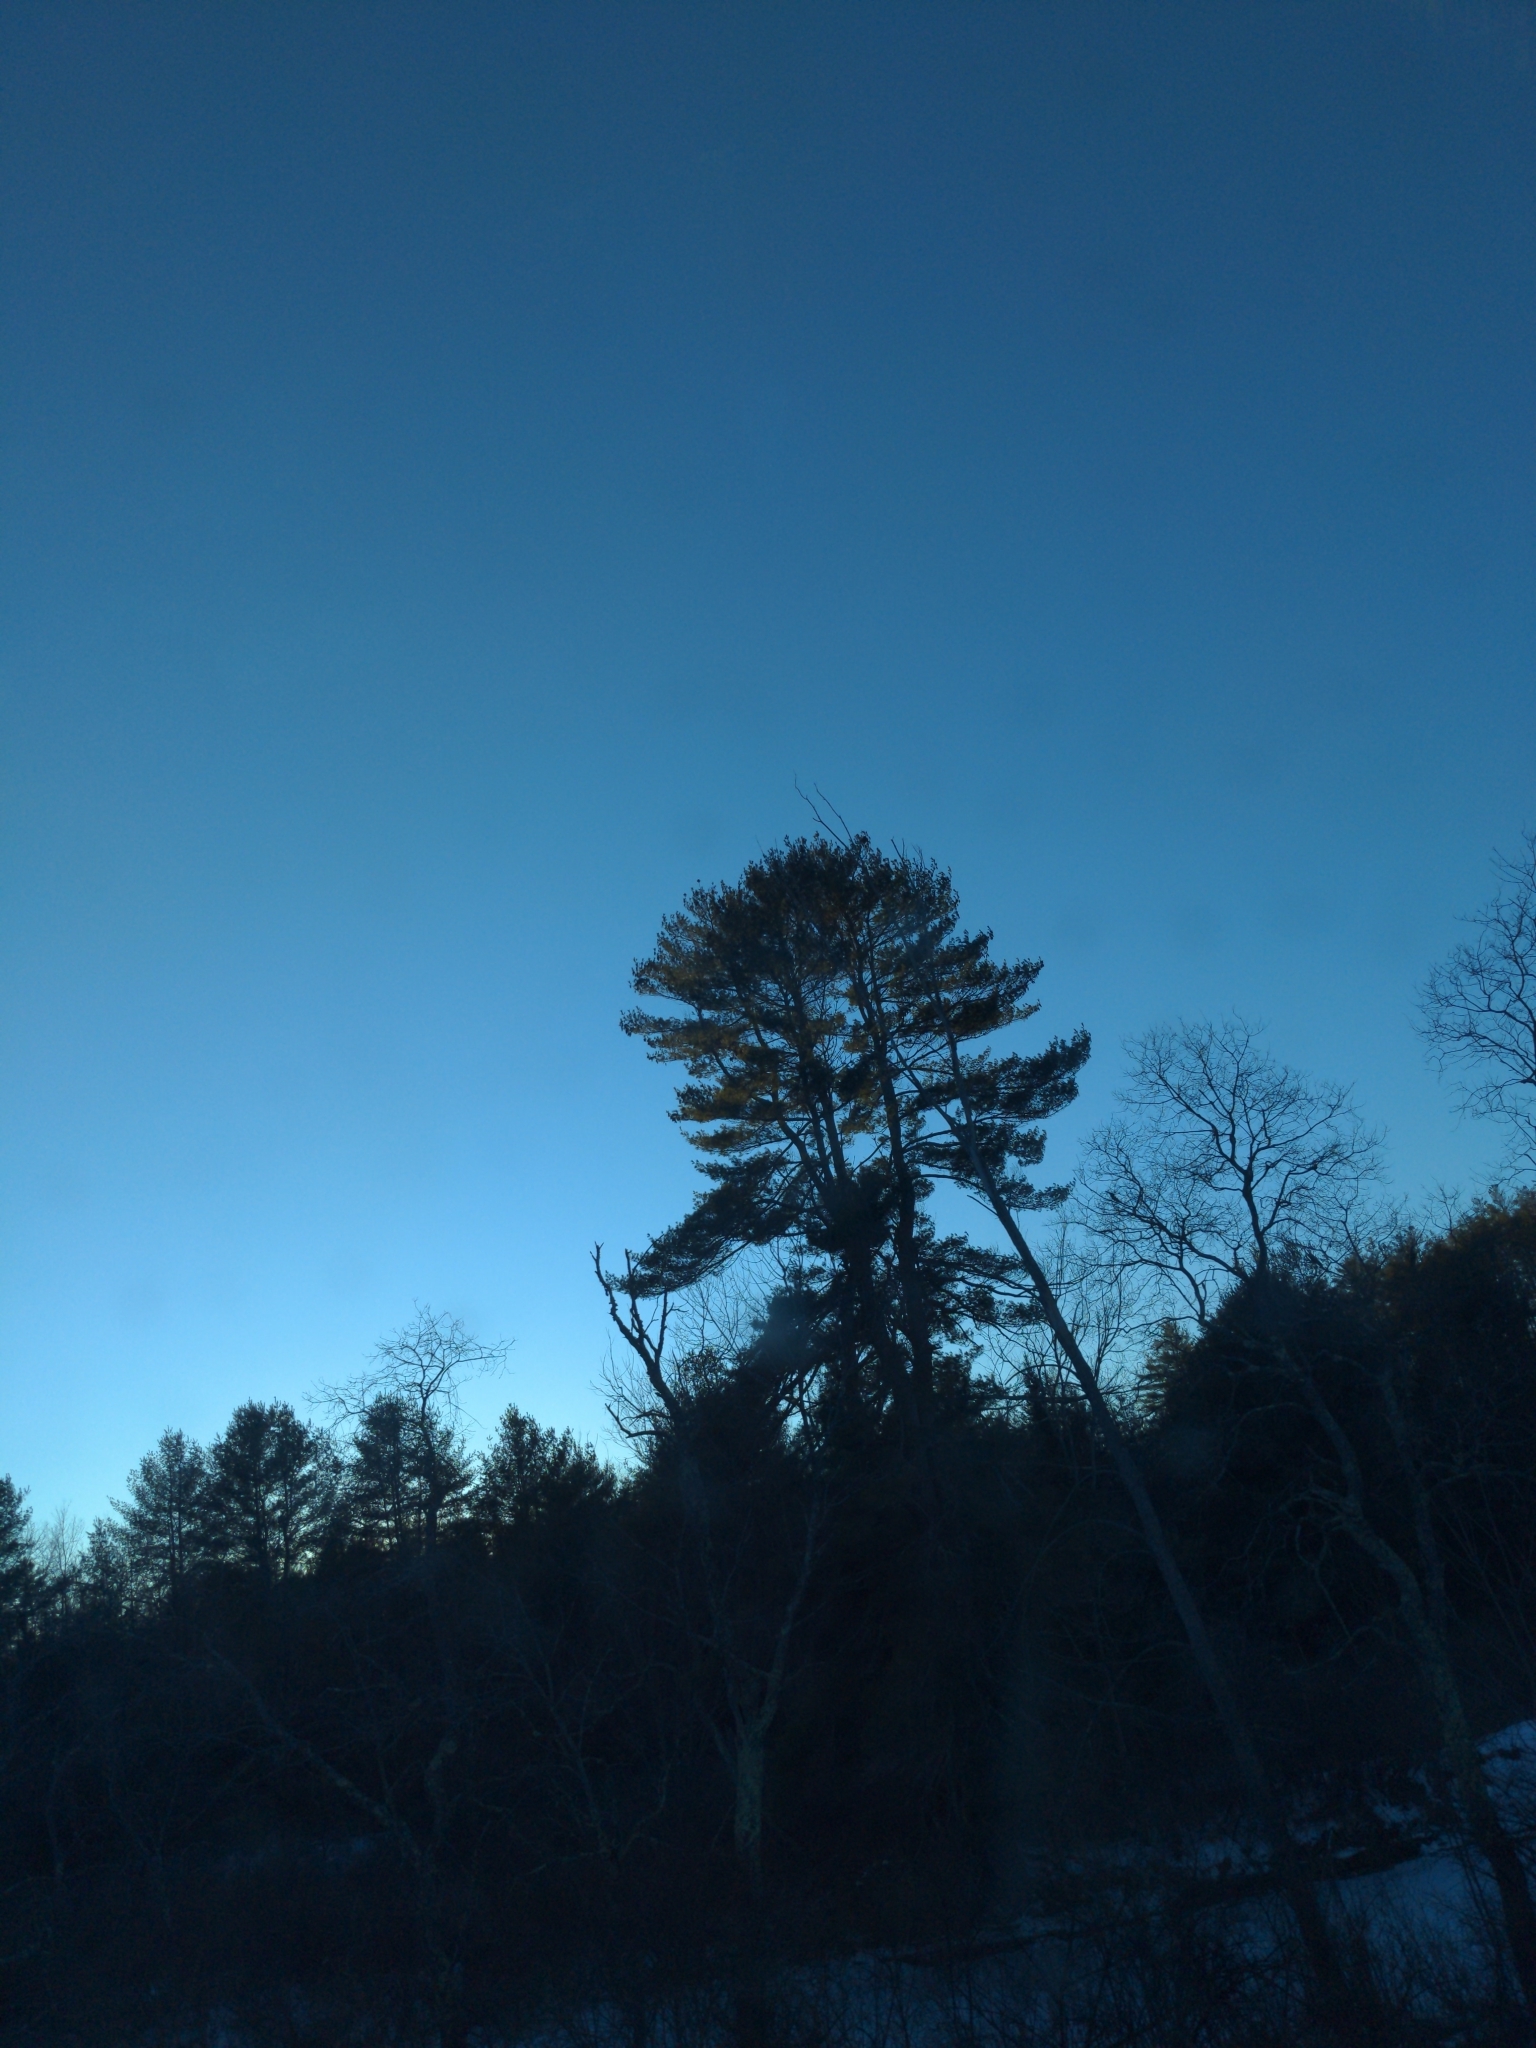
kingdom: Plantae
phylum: Tracheophyta
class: Pinopsida
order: Pinales
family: Pinaceae
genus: Pinus
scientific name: Pinus strobus
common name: Weymouth pine
